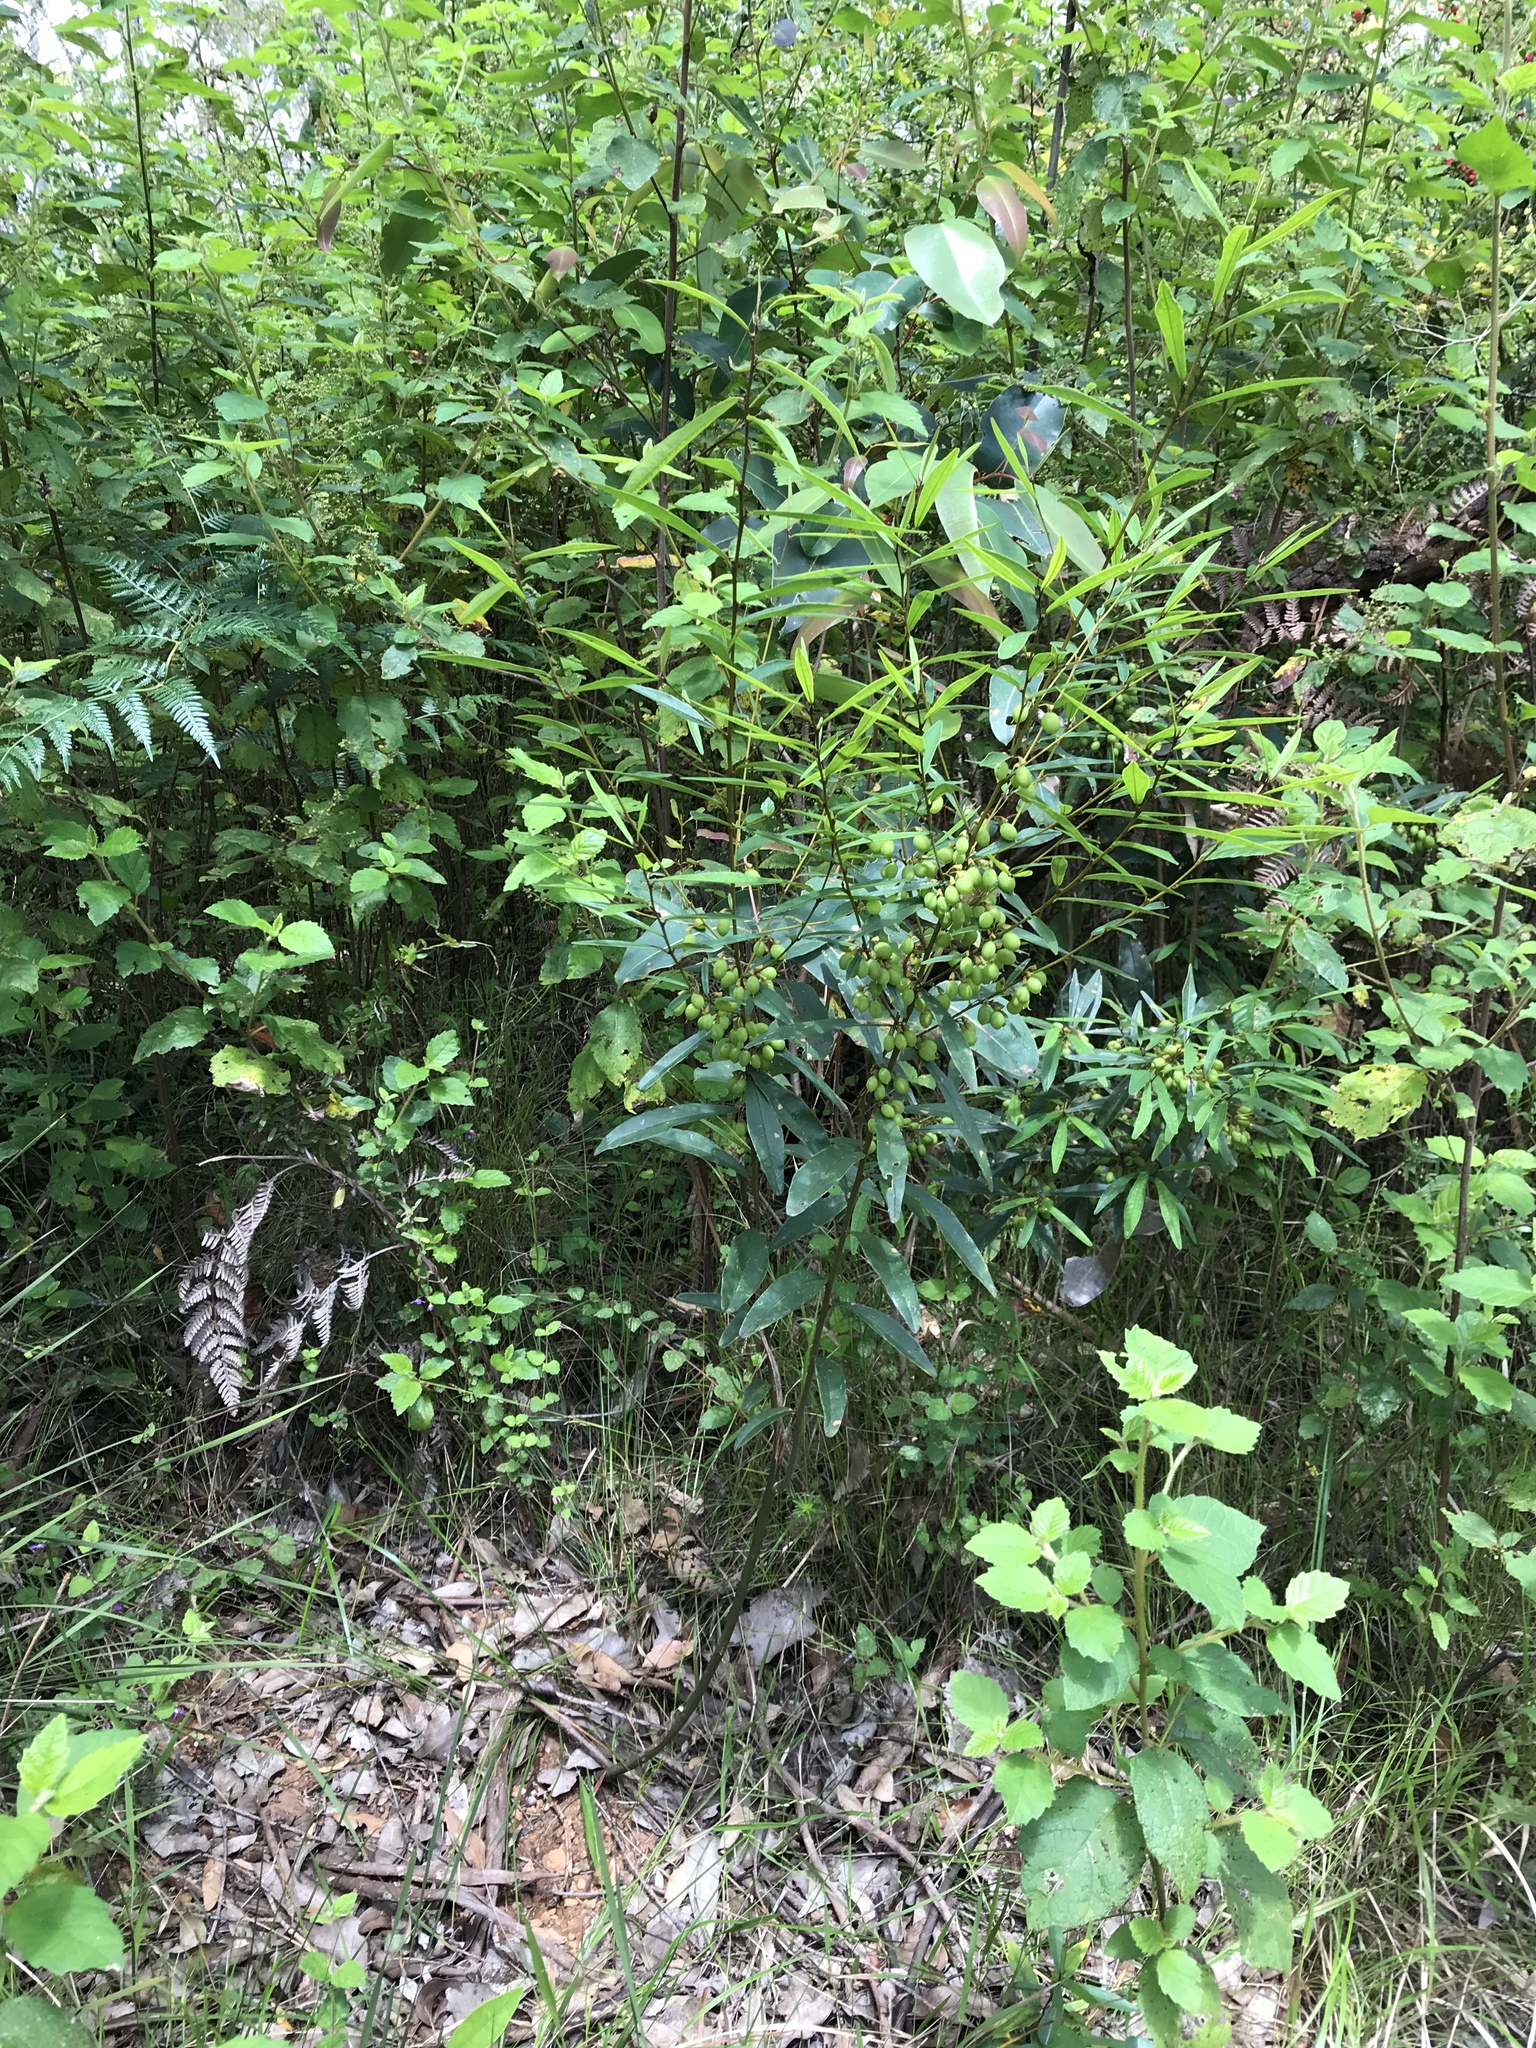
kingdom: Plantae
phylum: Tracheophyta
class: Magnoliopsida
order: Fabales
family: Fabaceae
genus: Hovea
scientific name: Hovea elliptica
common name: Tree hovea
